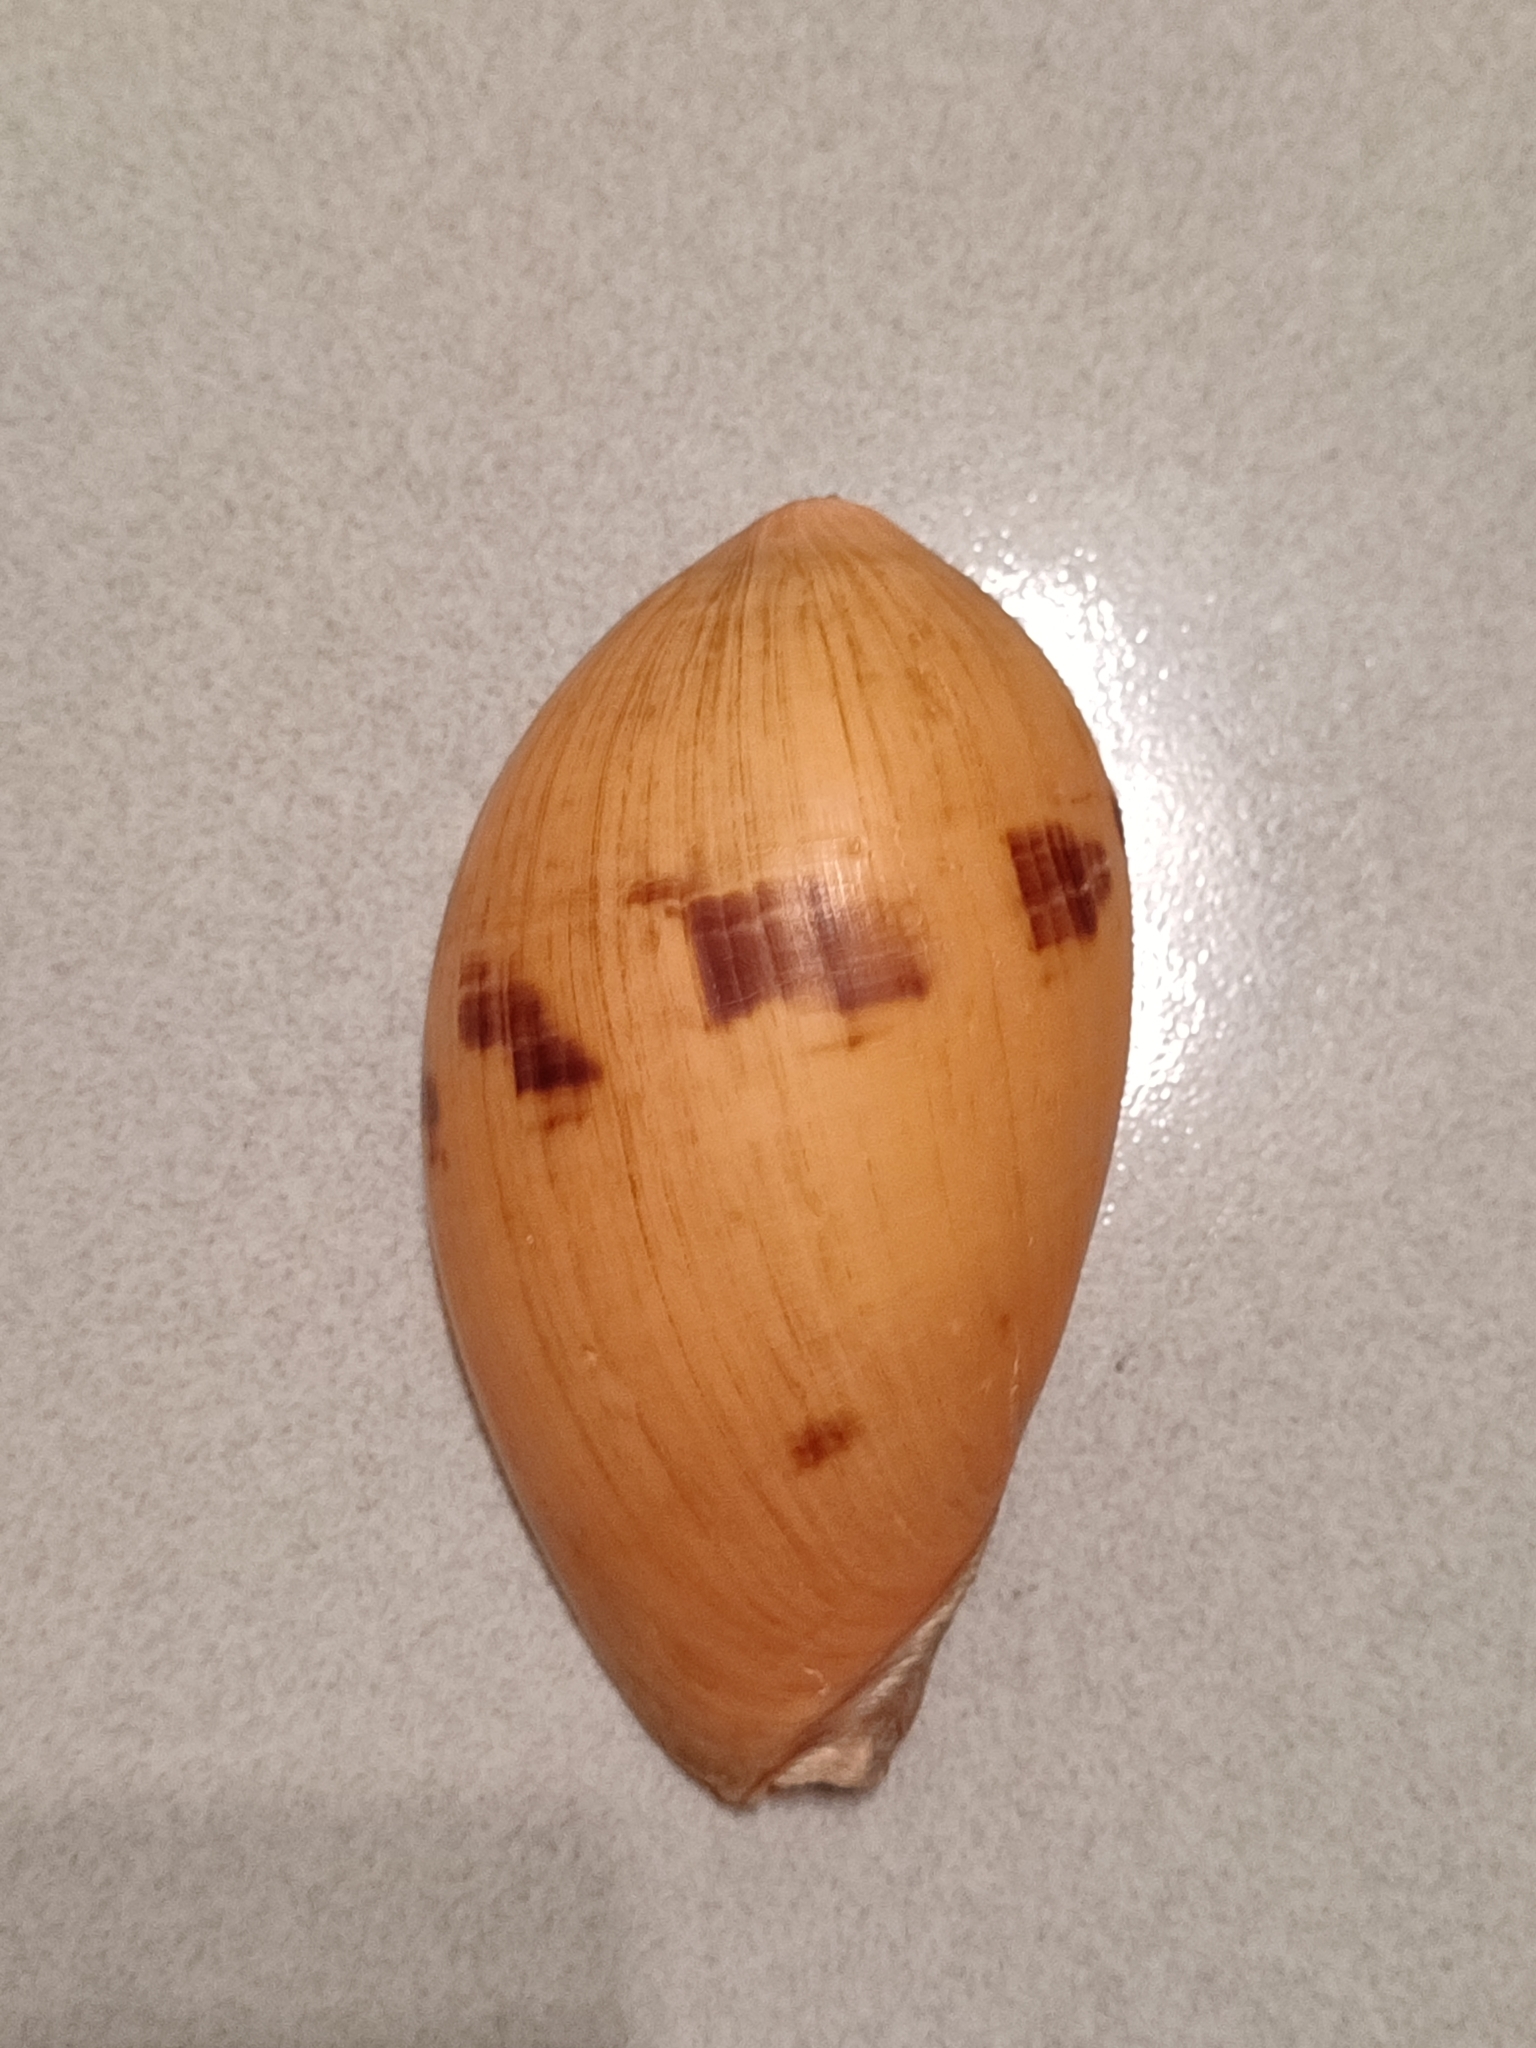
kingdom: Animalia
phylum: Mollusca
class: Gastropoda
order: Neogastropoda
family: Volutidae
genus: Melo
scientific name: Melo melo
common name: Indian volute
